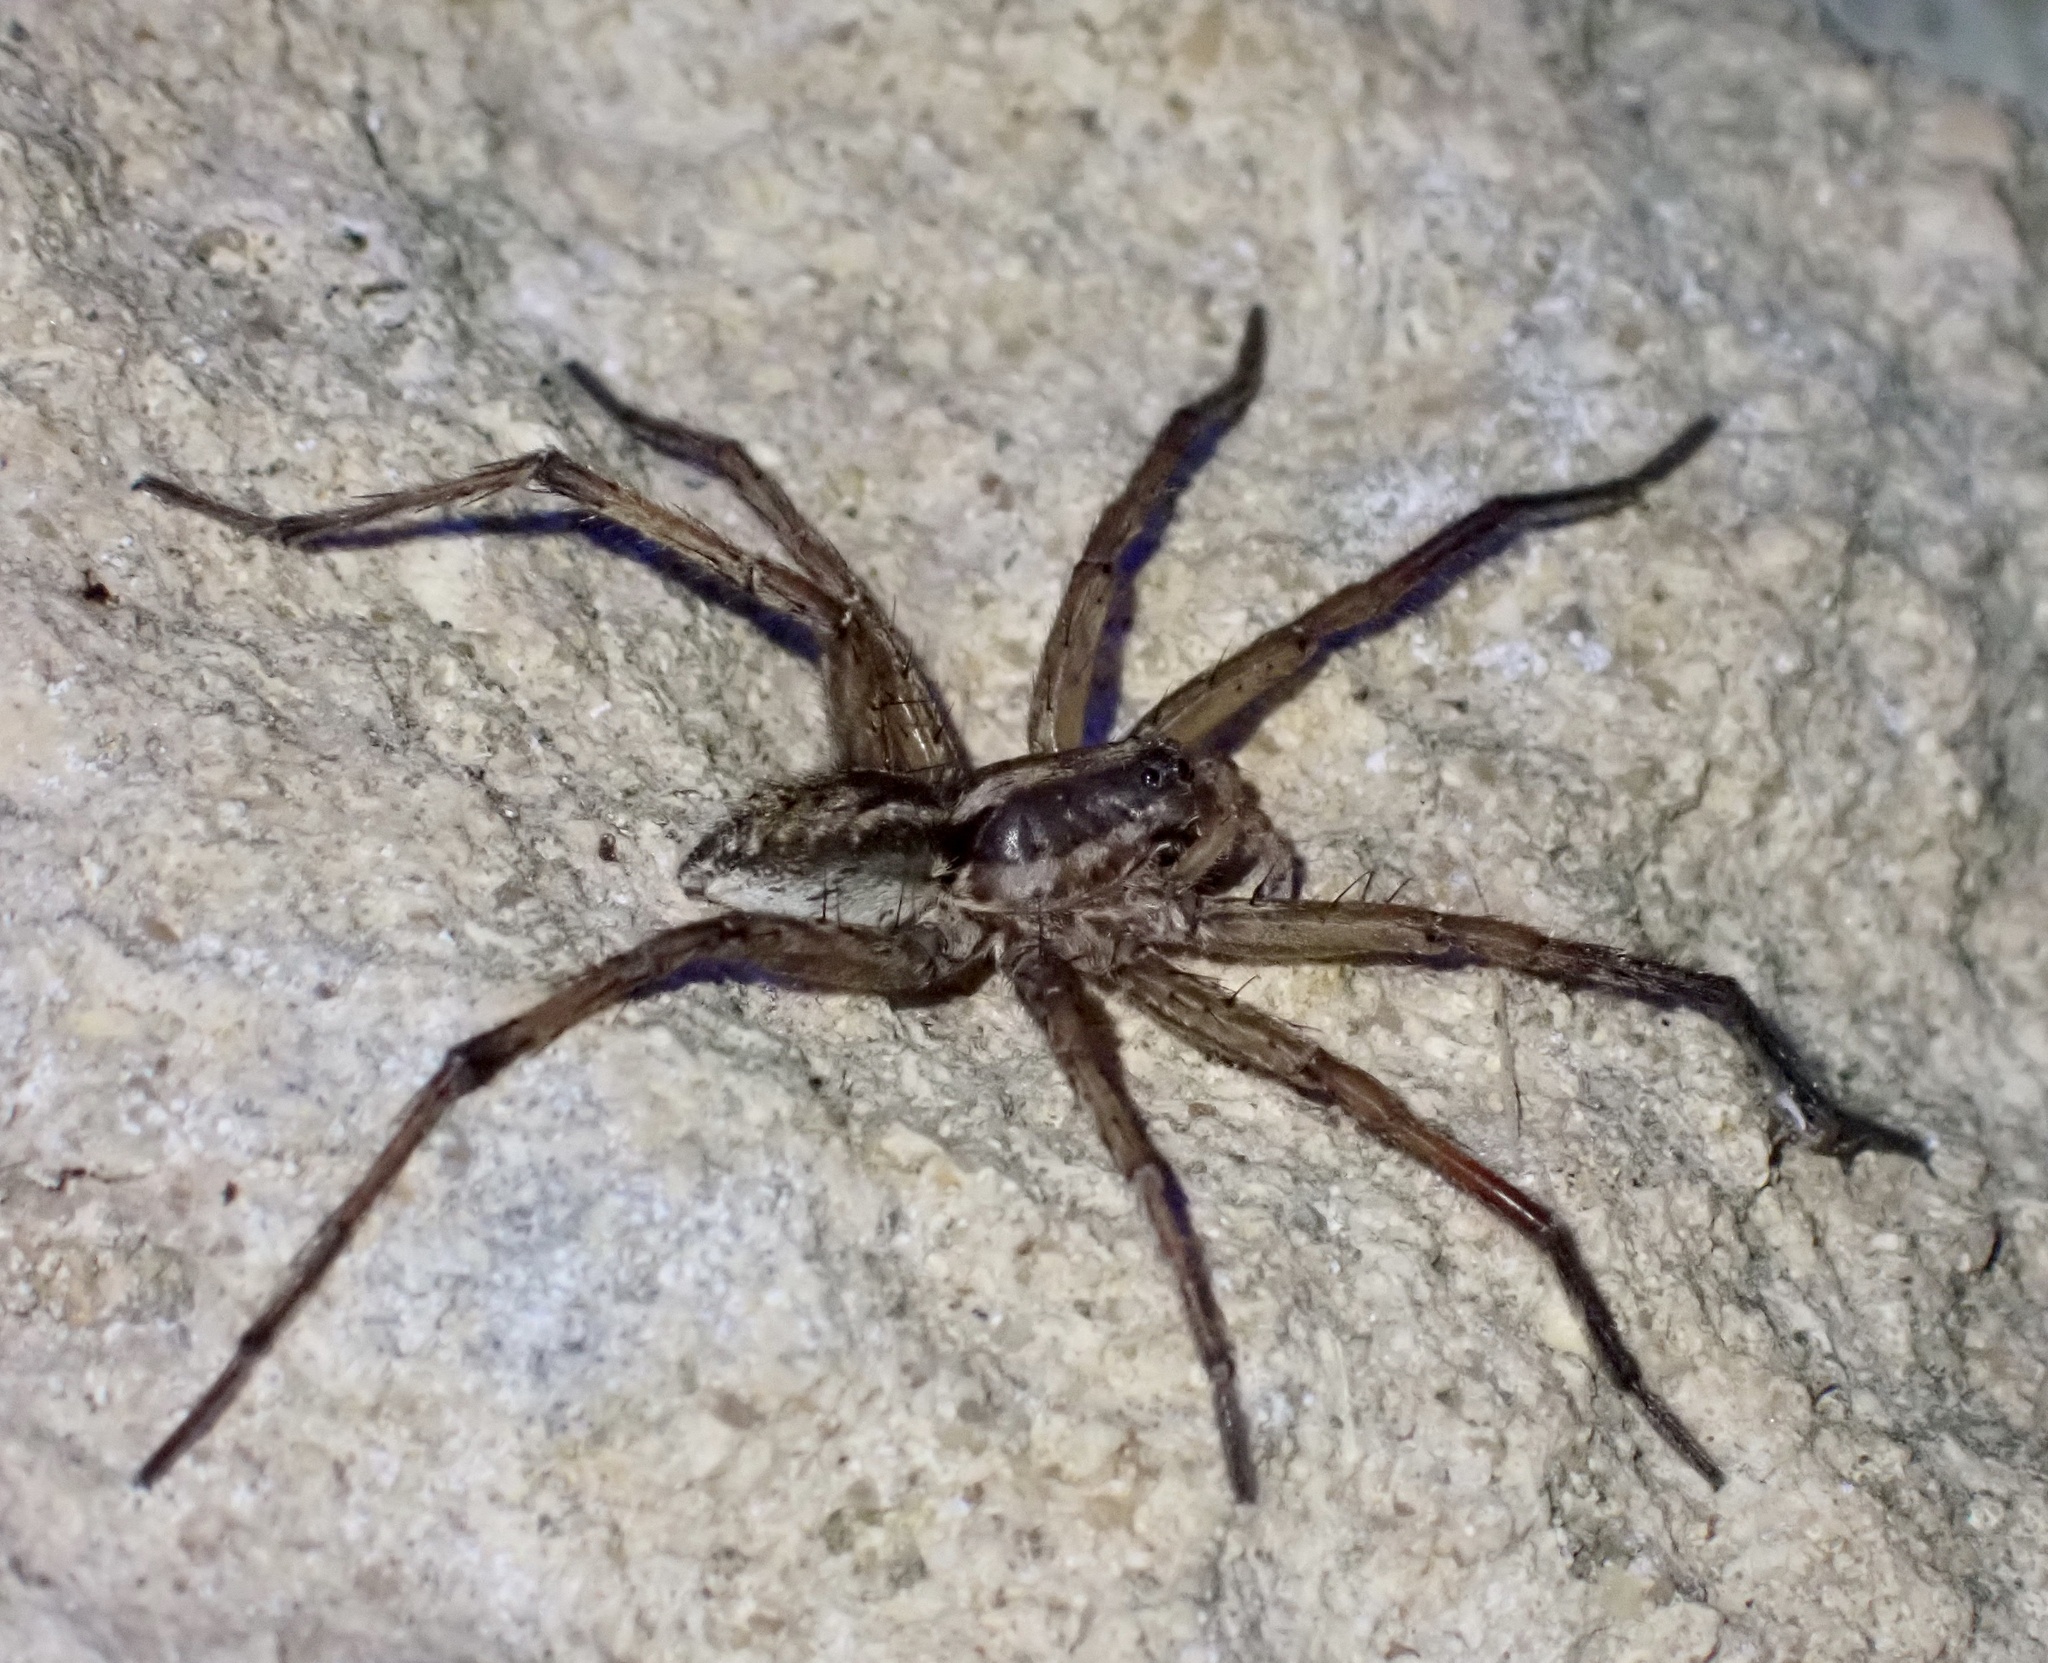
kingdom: Animalia
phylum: Arthropoda
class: Arachnida
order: Araneae
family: Lycosidae
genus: Hogna
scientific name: Hogna radiata
